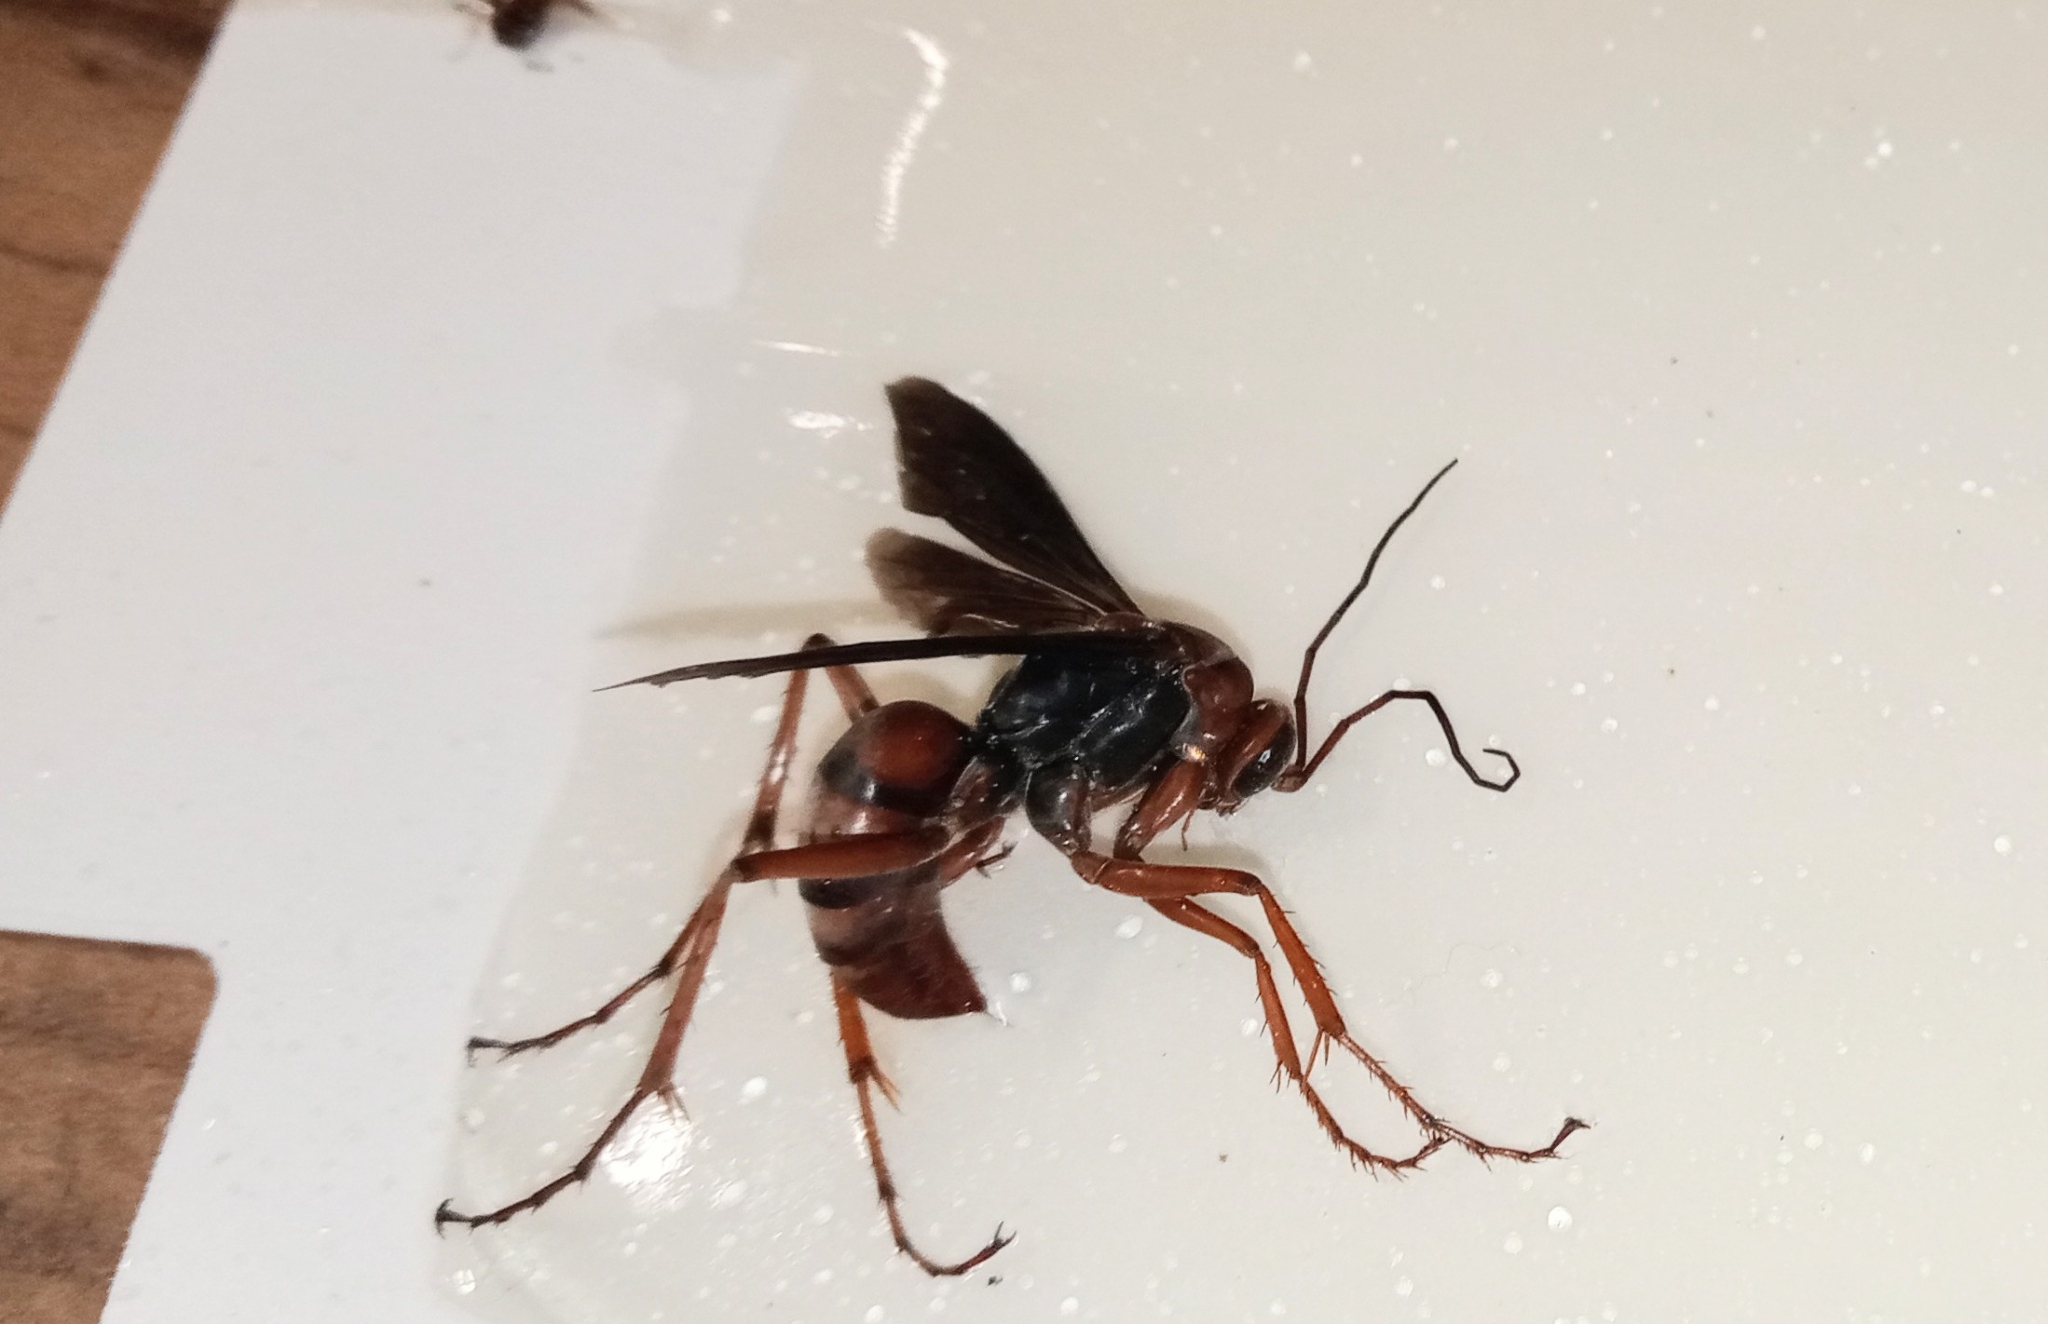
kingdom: Animalia
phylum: Arthropoda
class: Insecta
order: Hymenoptera
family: Pompilidae
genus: Tachypompilus
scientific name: Tachypompilus ferrugineus
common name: Rusty spider wasp
